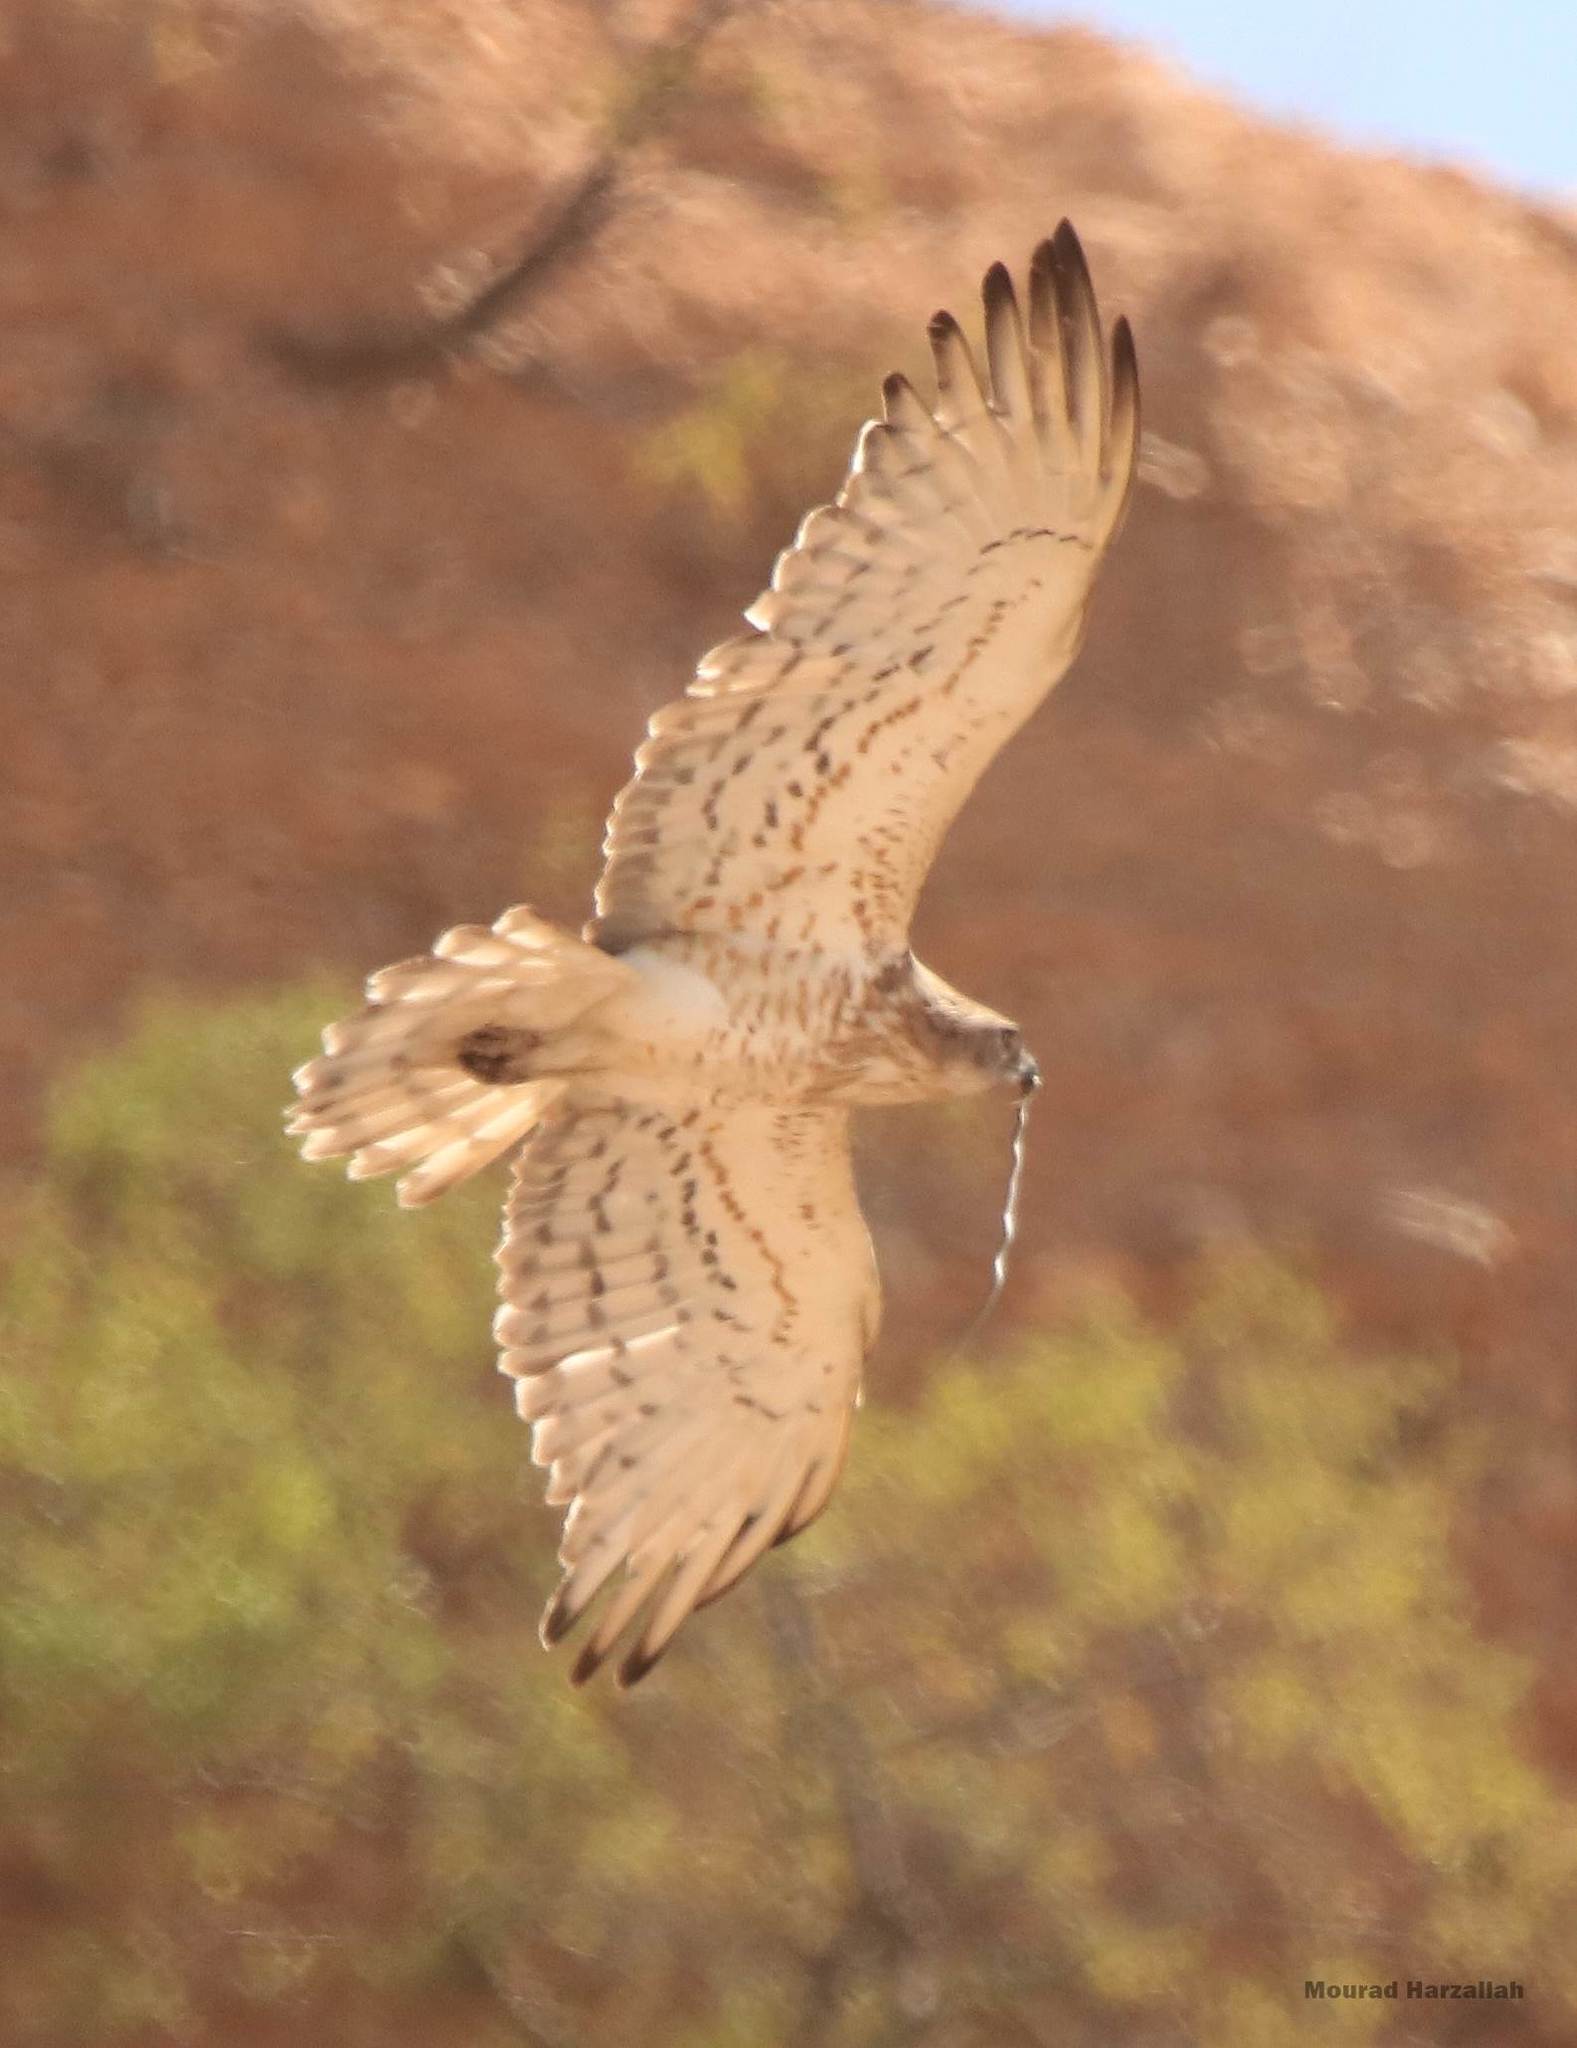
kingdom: Animalia
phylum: Chordata
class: Aves
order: Accipitriformes
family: Accipitridae
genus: Circaetus
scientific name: Circaetus gallicus
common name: Short-toed snake eagle
